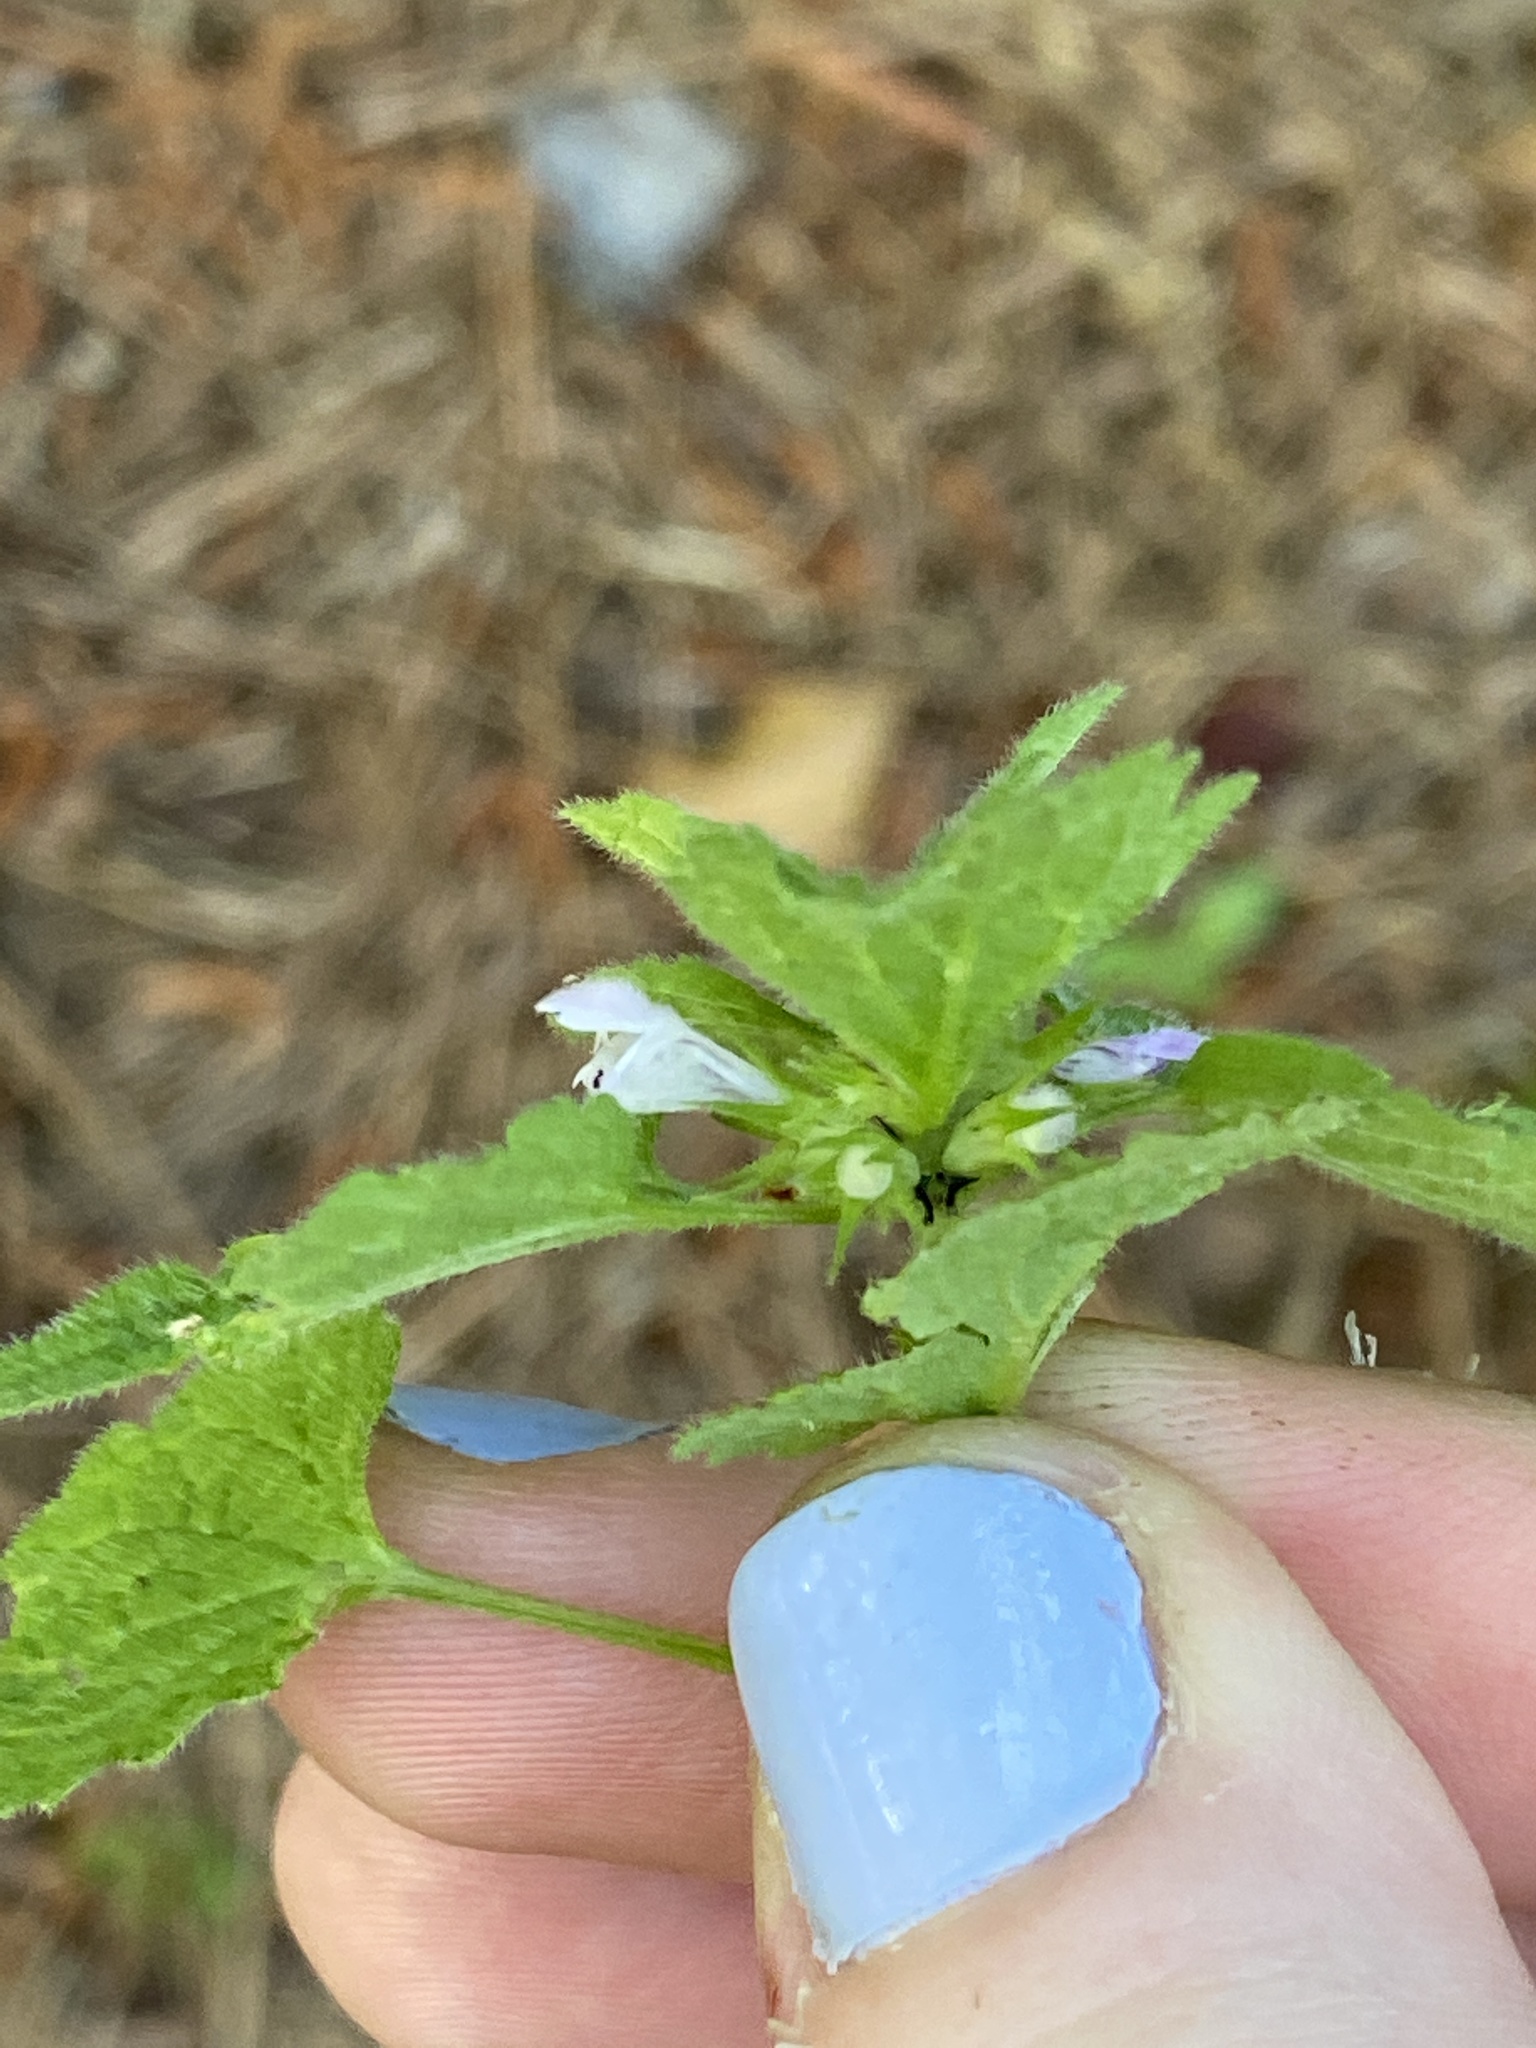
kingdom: Plantae
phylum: Tracheophyta
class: Magnoliopsida
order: Lamiales
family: Lamiaceae
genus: Lamium
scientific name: Lamium purpureum
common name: Red dead-nettle
